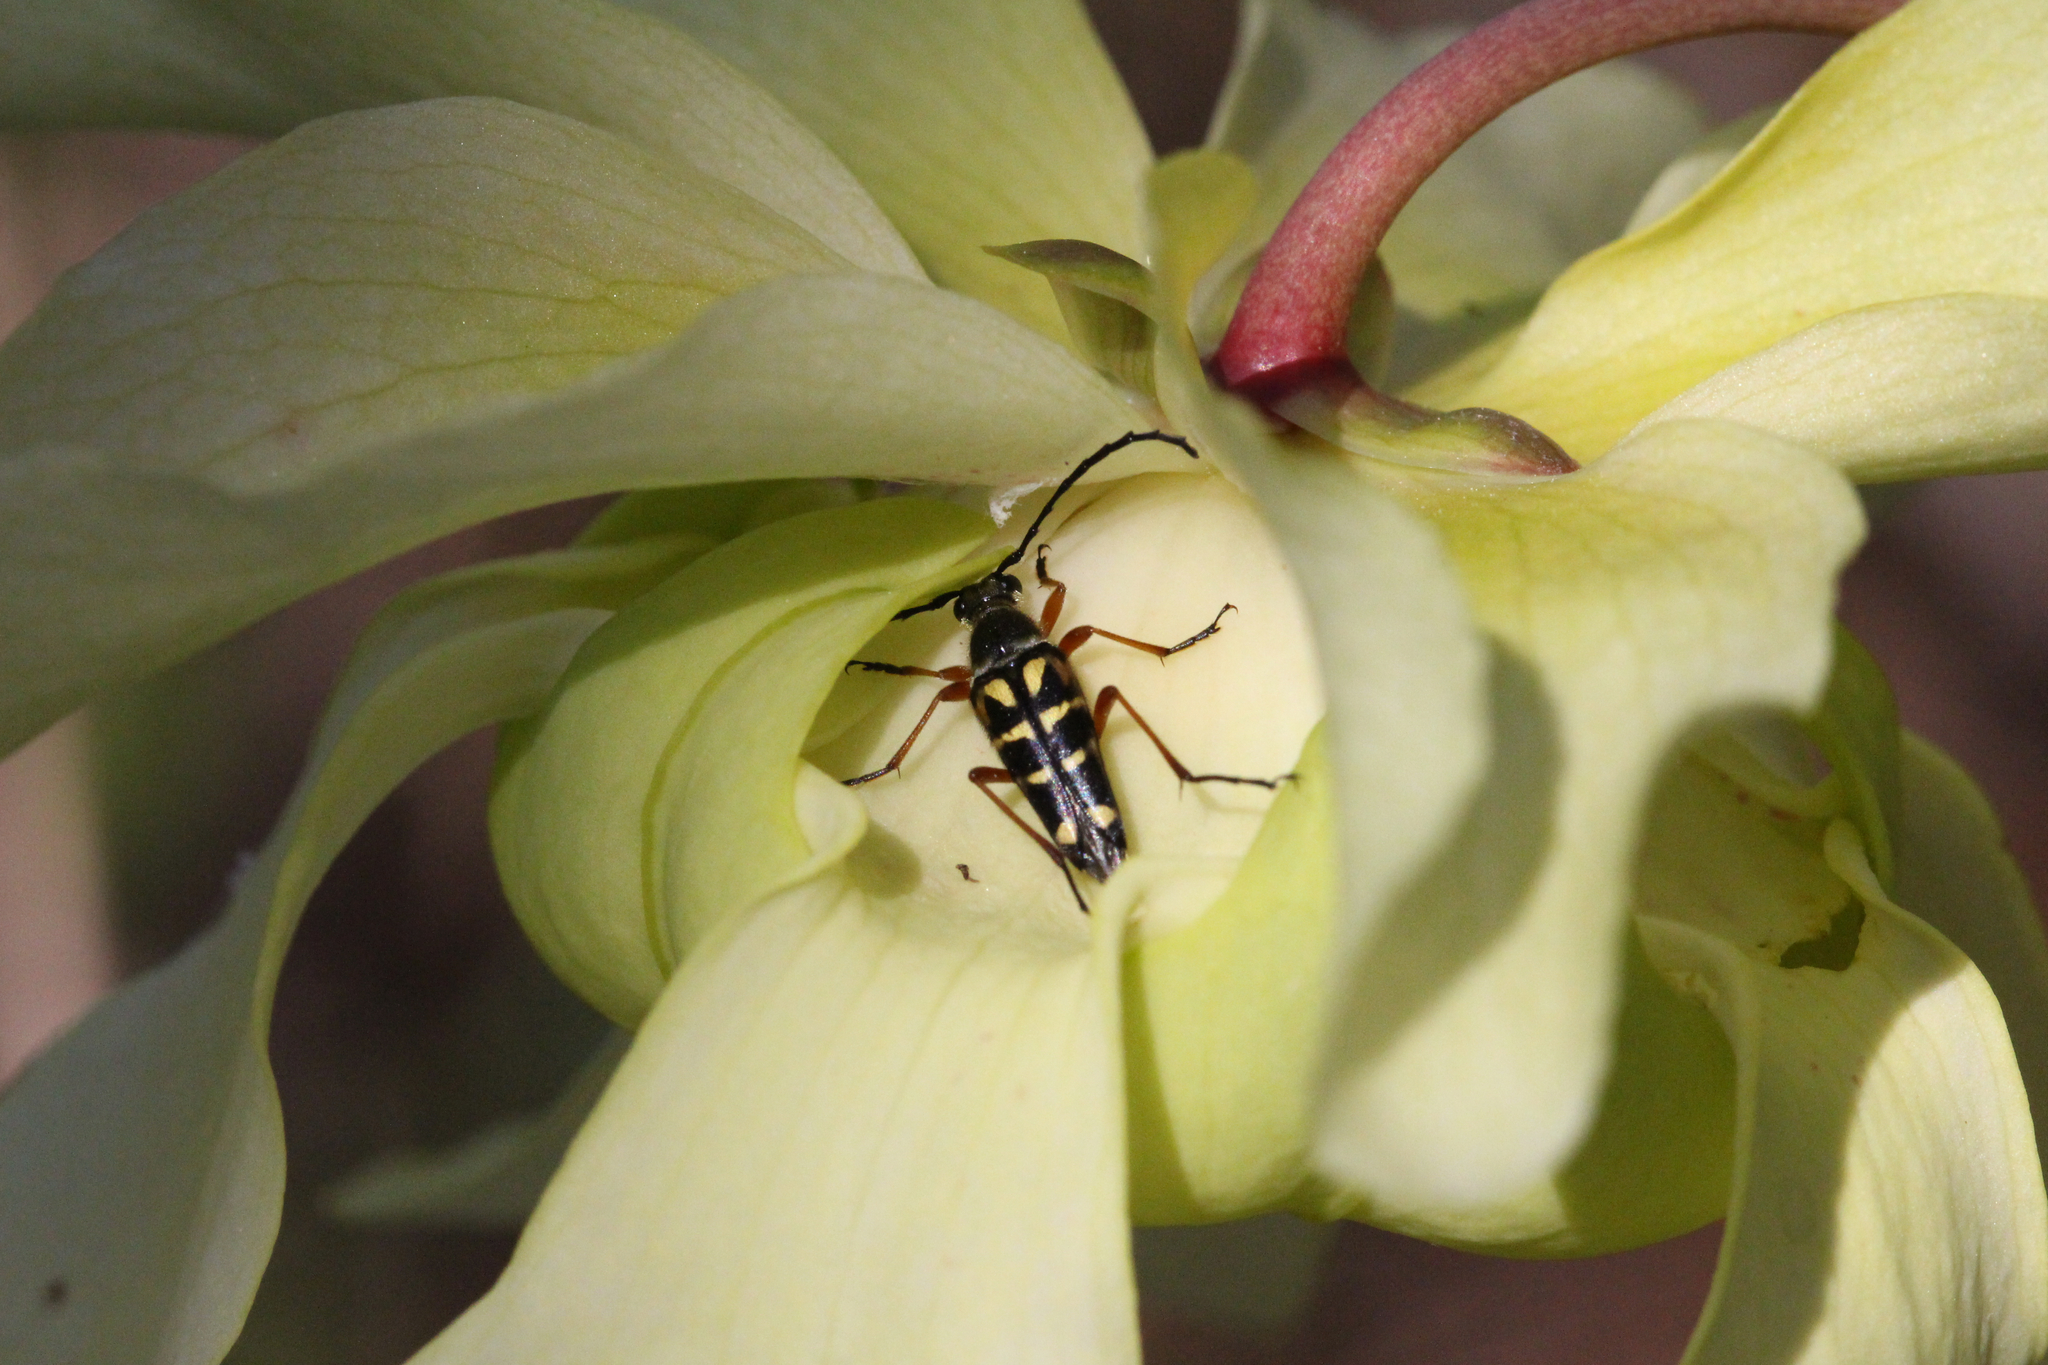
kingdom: Animalia
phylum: Arthropoda
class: Insecta
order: Coleoptera
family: Cerambycidae
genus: Typocerus
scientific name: Typocerus zebra
